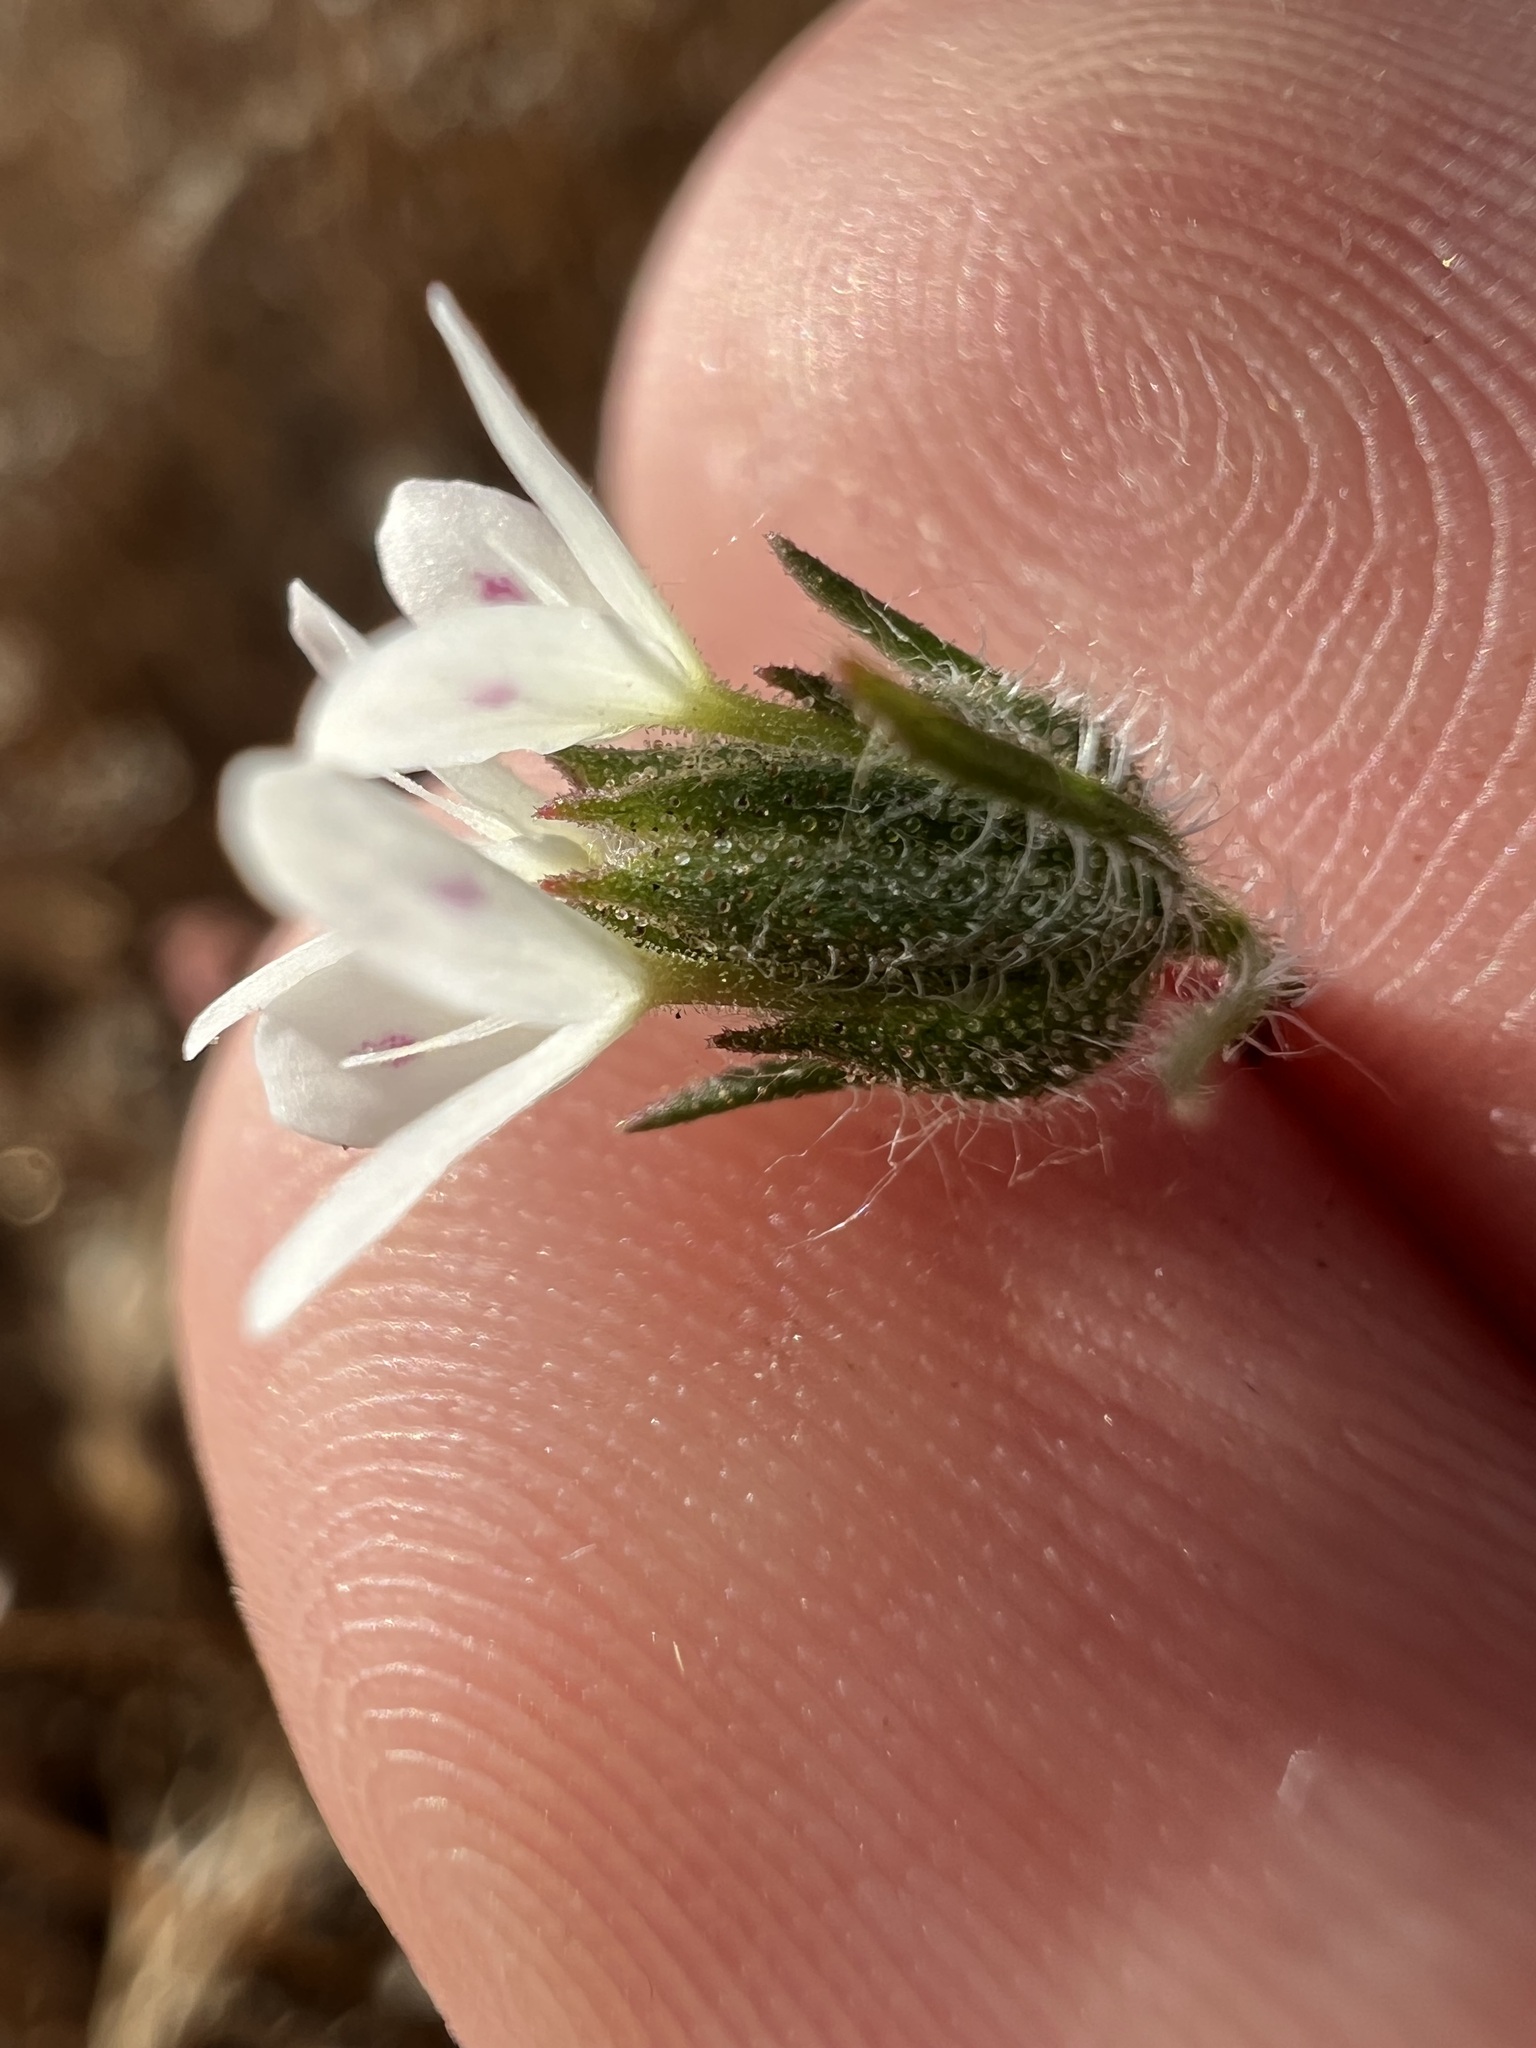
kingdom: Plantae
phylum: Tracheophyta
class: Magnoliopsida
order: Asterales
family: Asteraceae
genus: Osmadenia
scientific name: Osmadenia tenella
